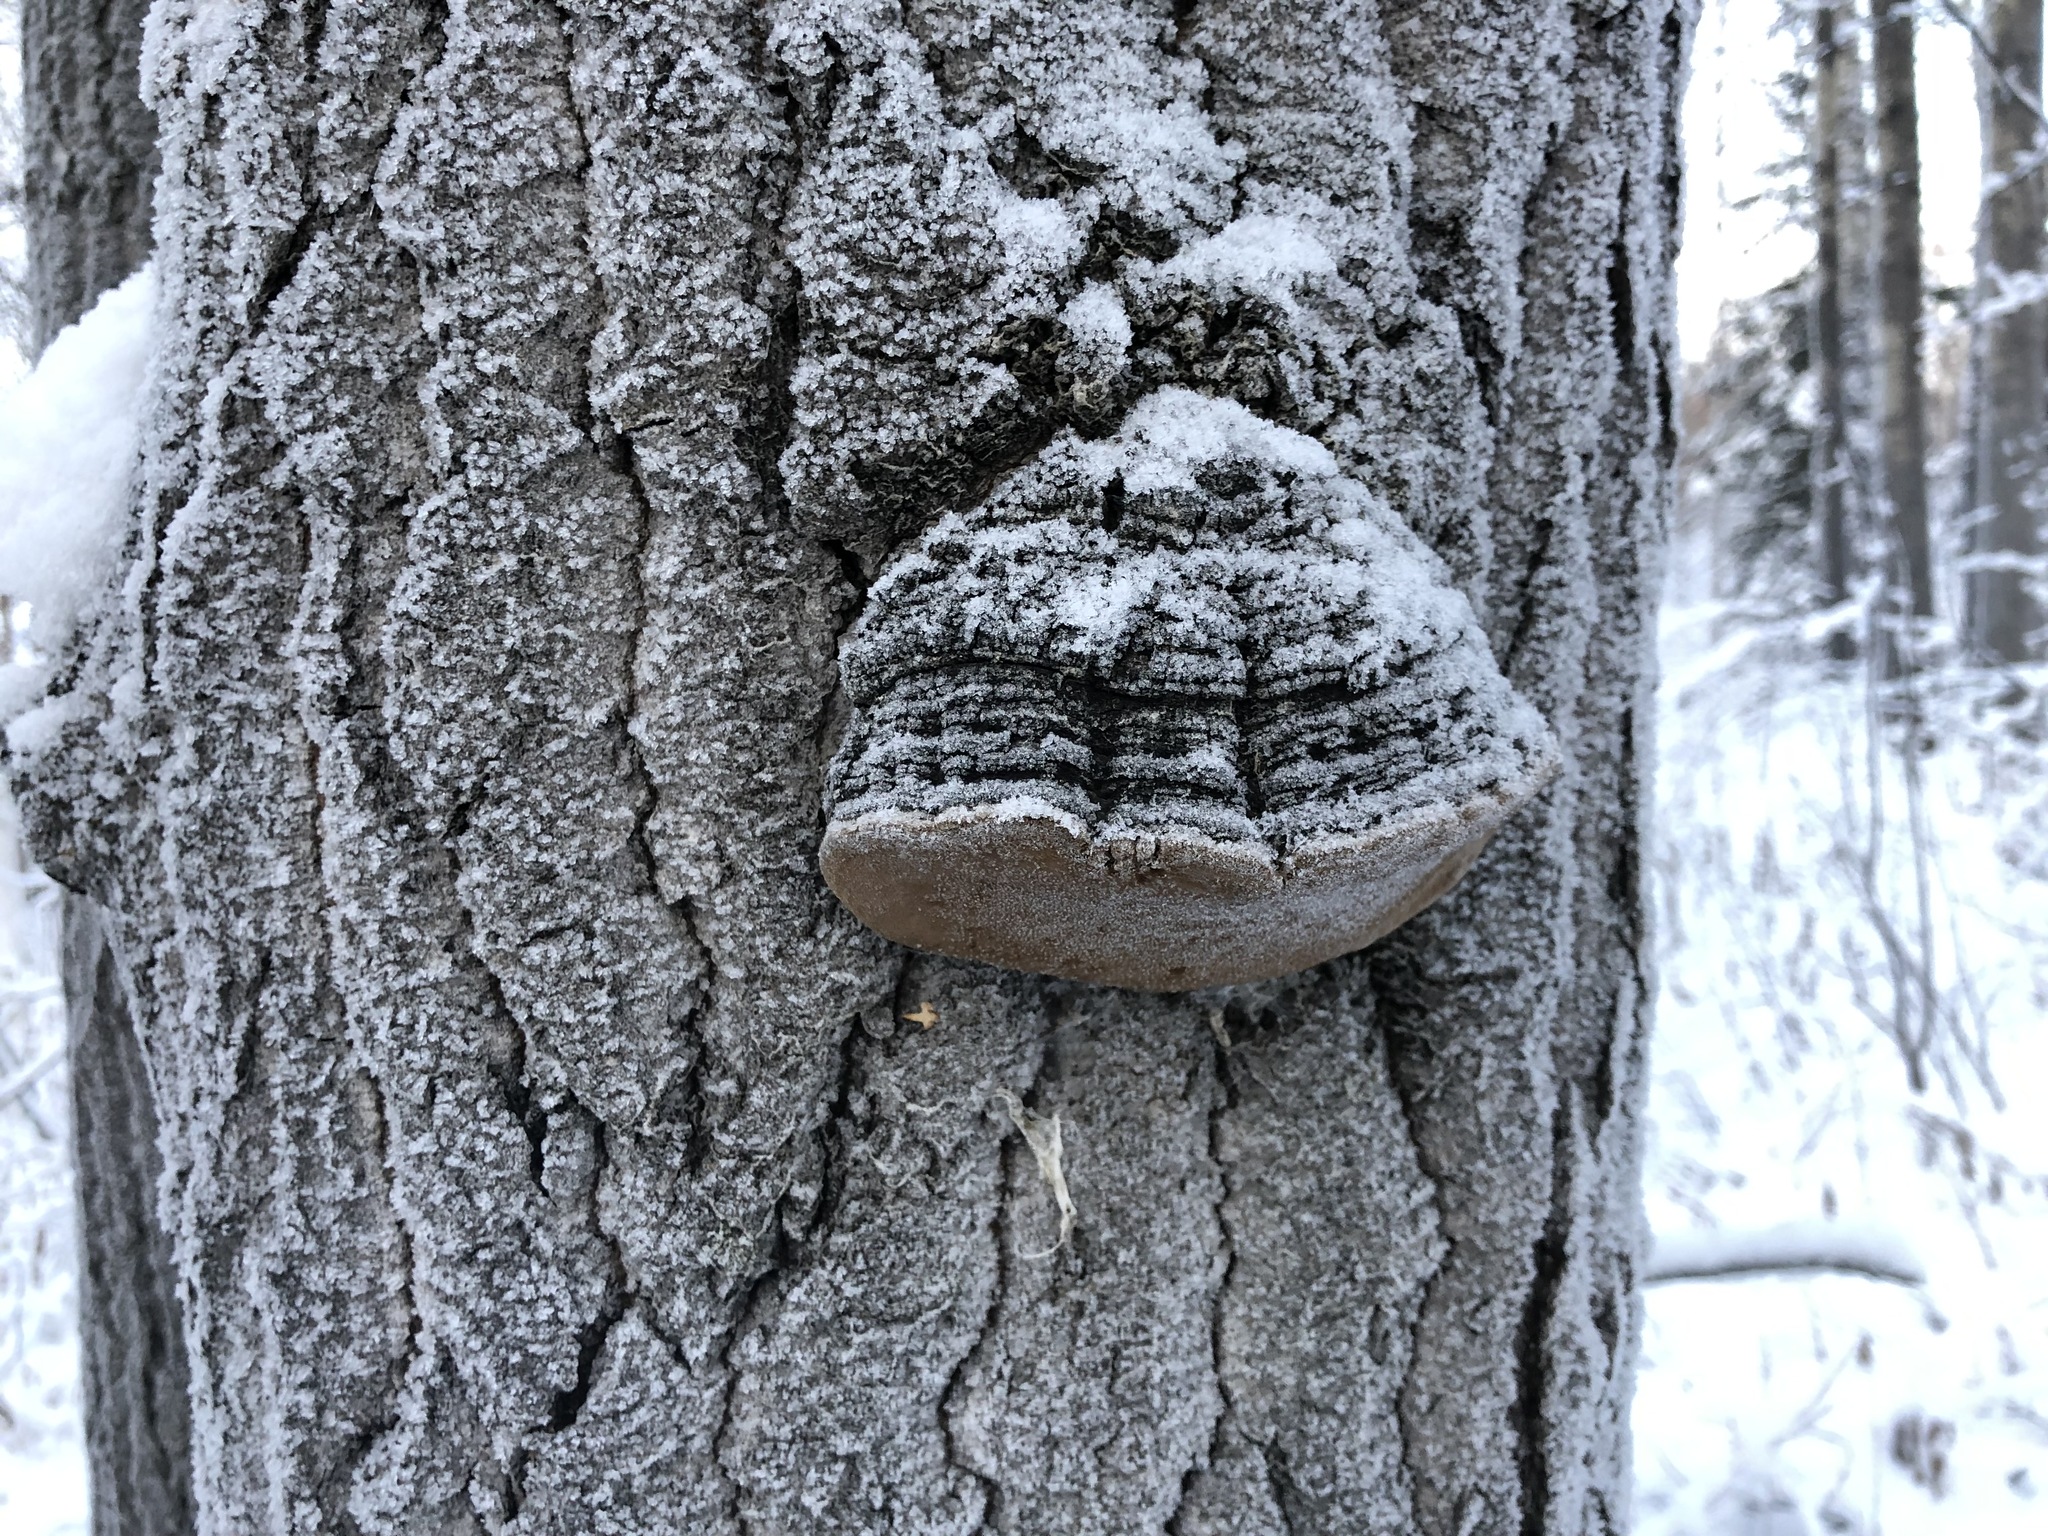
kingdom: Fungi
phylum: Basidiomycota
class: Agaricomycetes
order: Hymenochaetales
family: Hymenochaetaceae
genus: Phellinus
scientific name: Phellinus tremulae
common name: Aspen bracket
